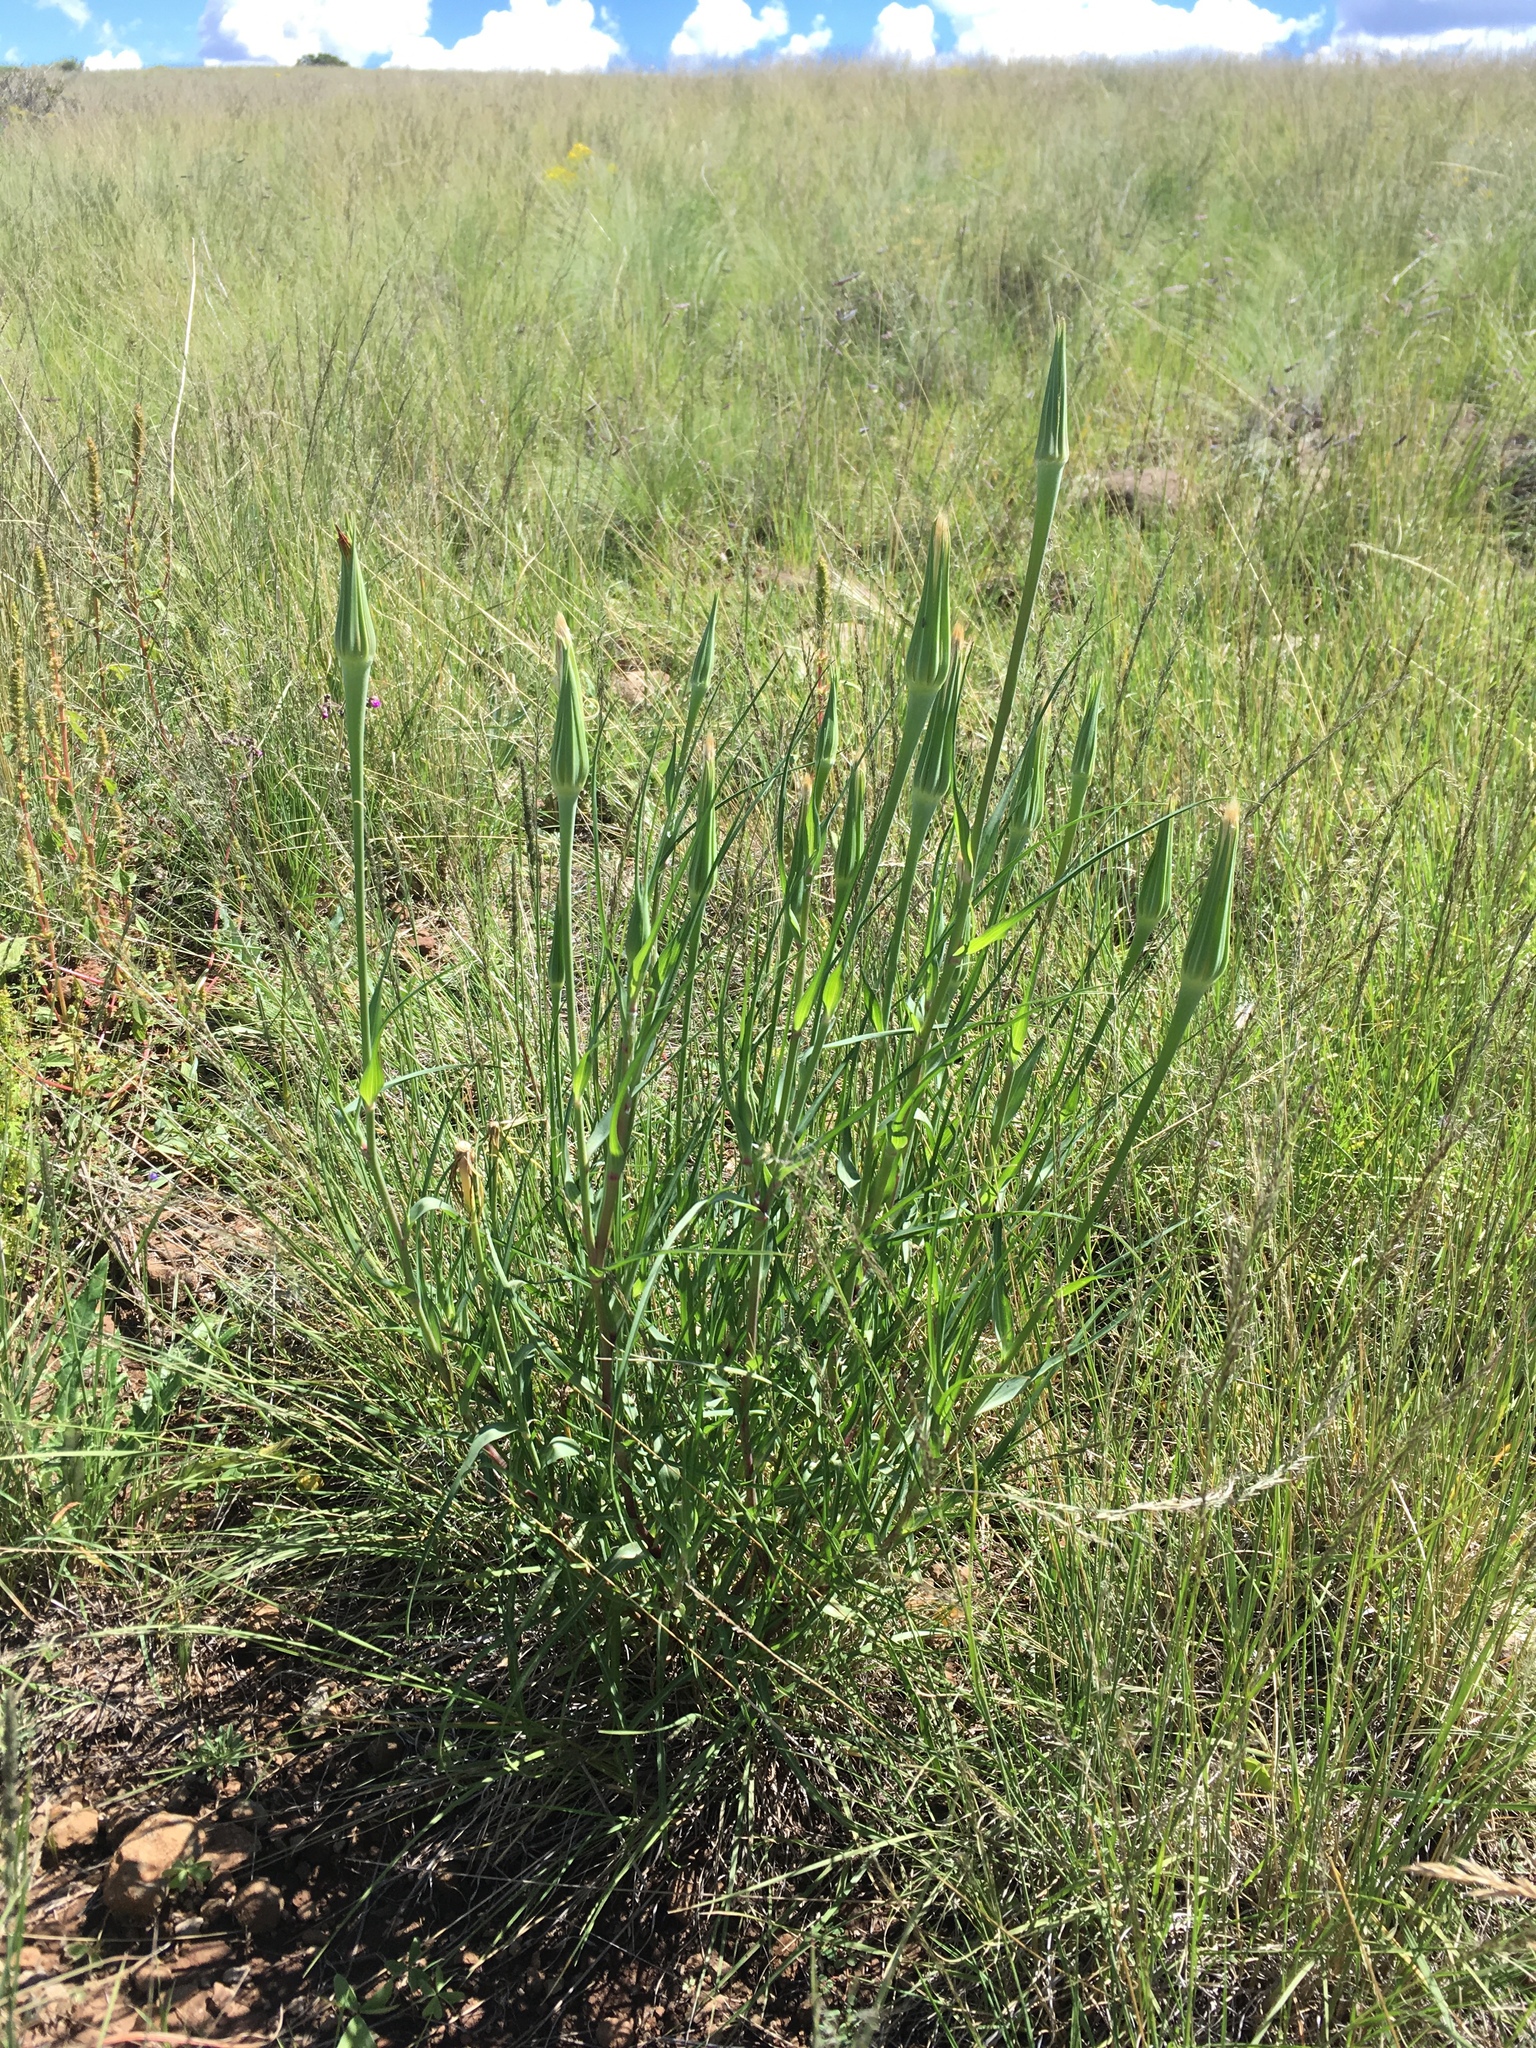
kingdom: Plantae
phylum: Tracheophyta
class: Magnoliopsida
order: Asterales
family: Asteraceae
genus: Tragopogon
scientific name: Tragopogon dubius
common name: Yellow salsify
